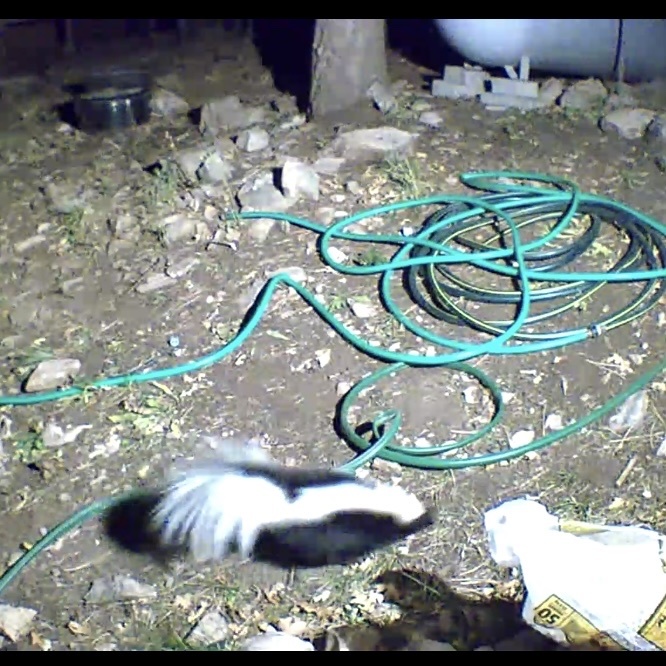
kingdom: Animalia
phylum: Chordata
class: Mammalia
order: Carnivora
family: Mephitidae
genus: Mephitis
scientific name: Mephitis mephitis
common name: Striped skunk
